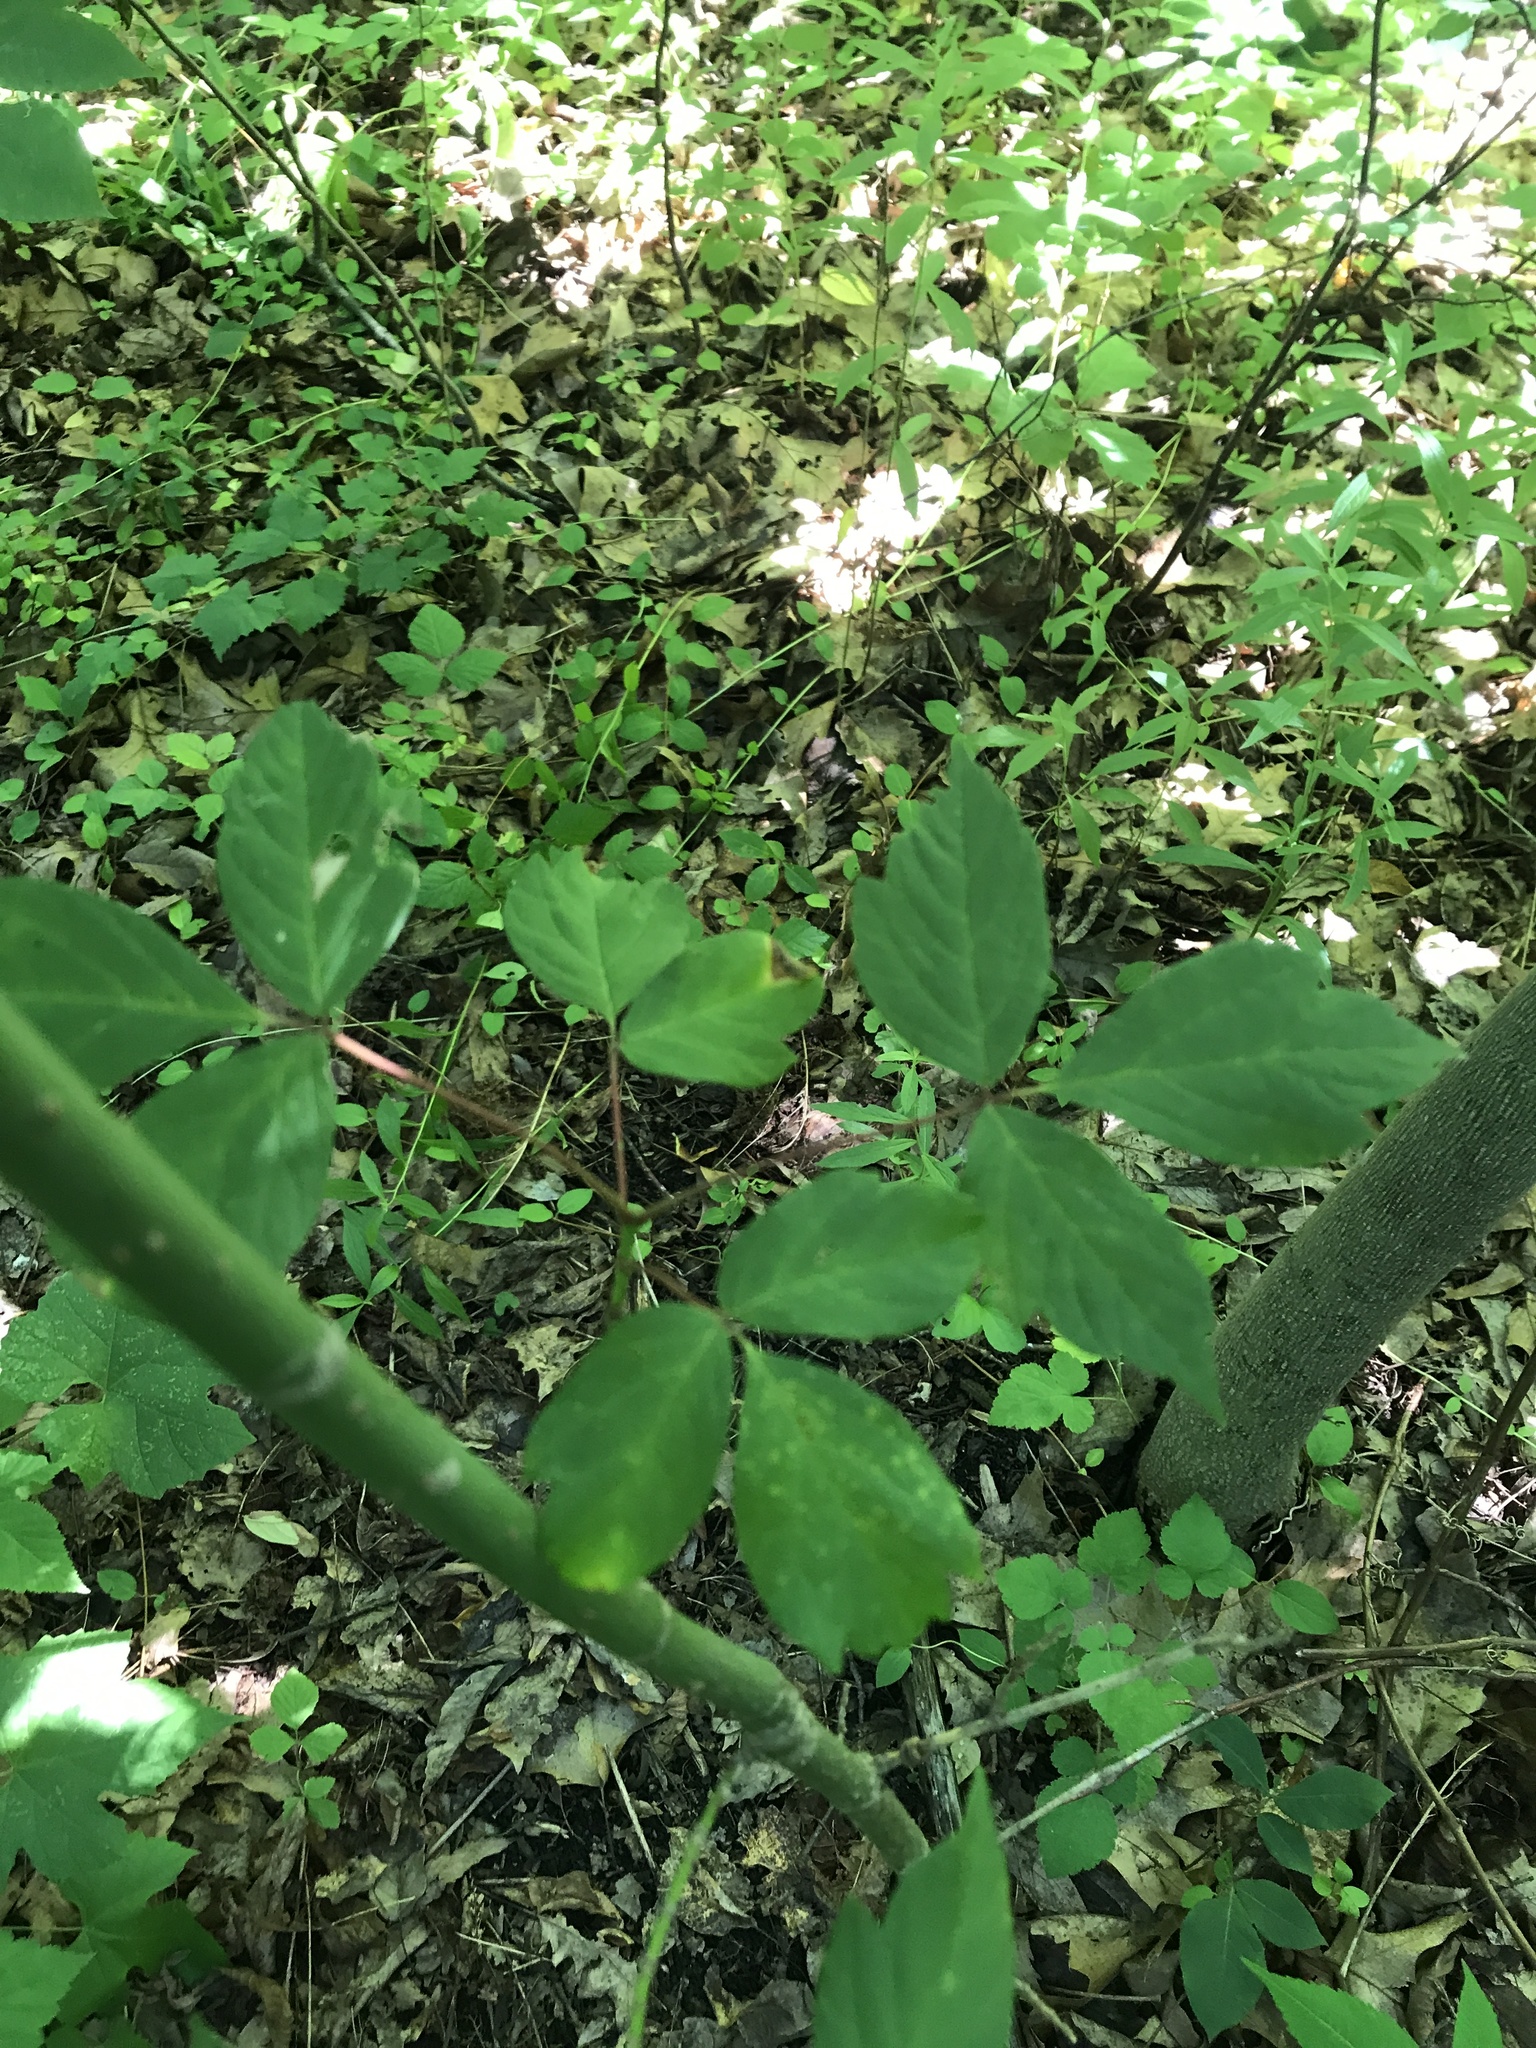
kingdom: Plantae
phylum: Tracheophyta
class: Magnoliopsida
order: Sapindales
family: Sapindaceae
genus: Acer
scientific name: Acer negundo
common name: Ashleaf maple
